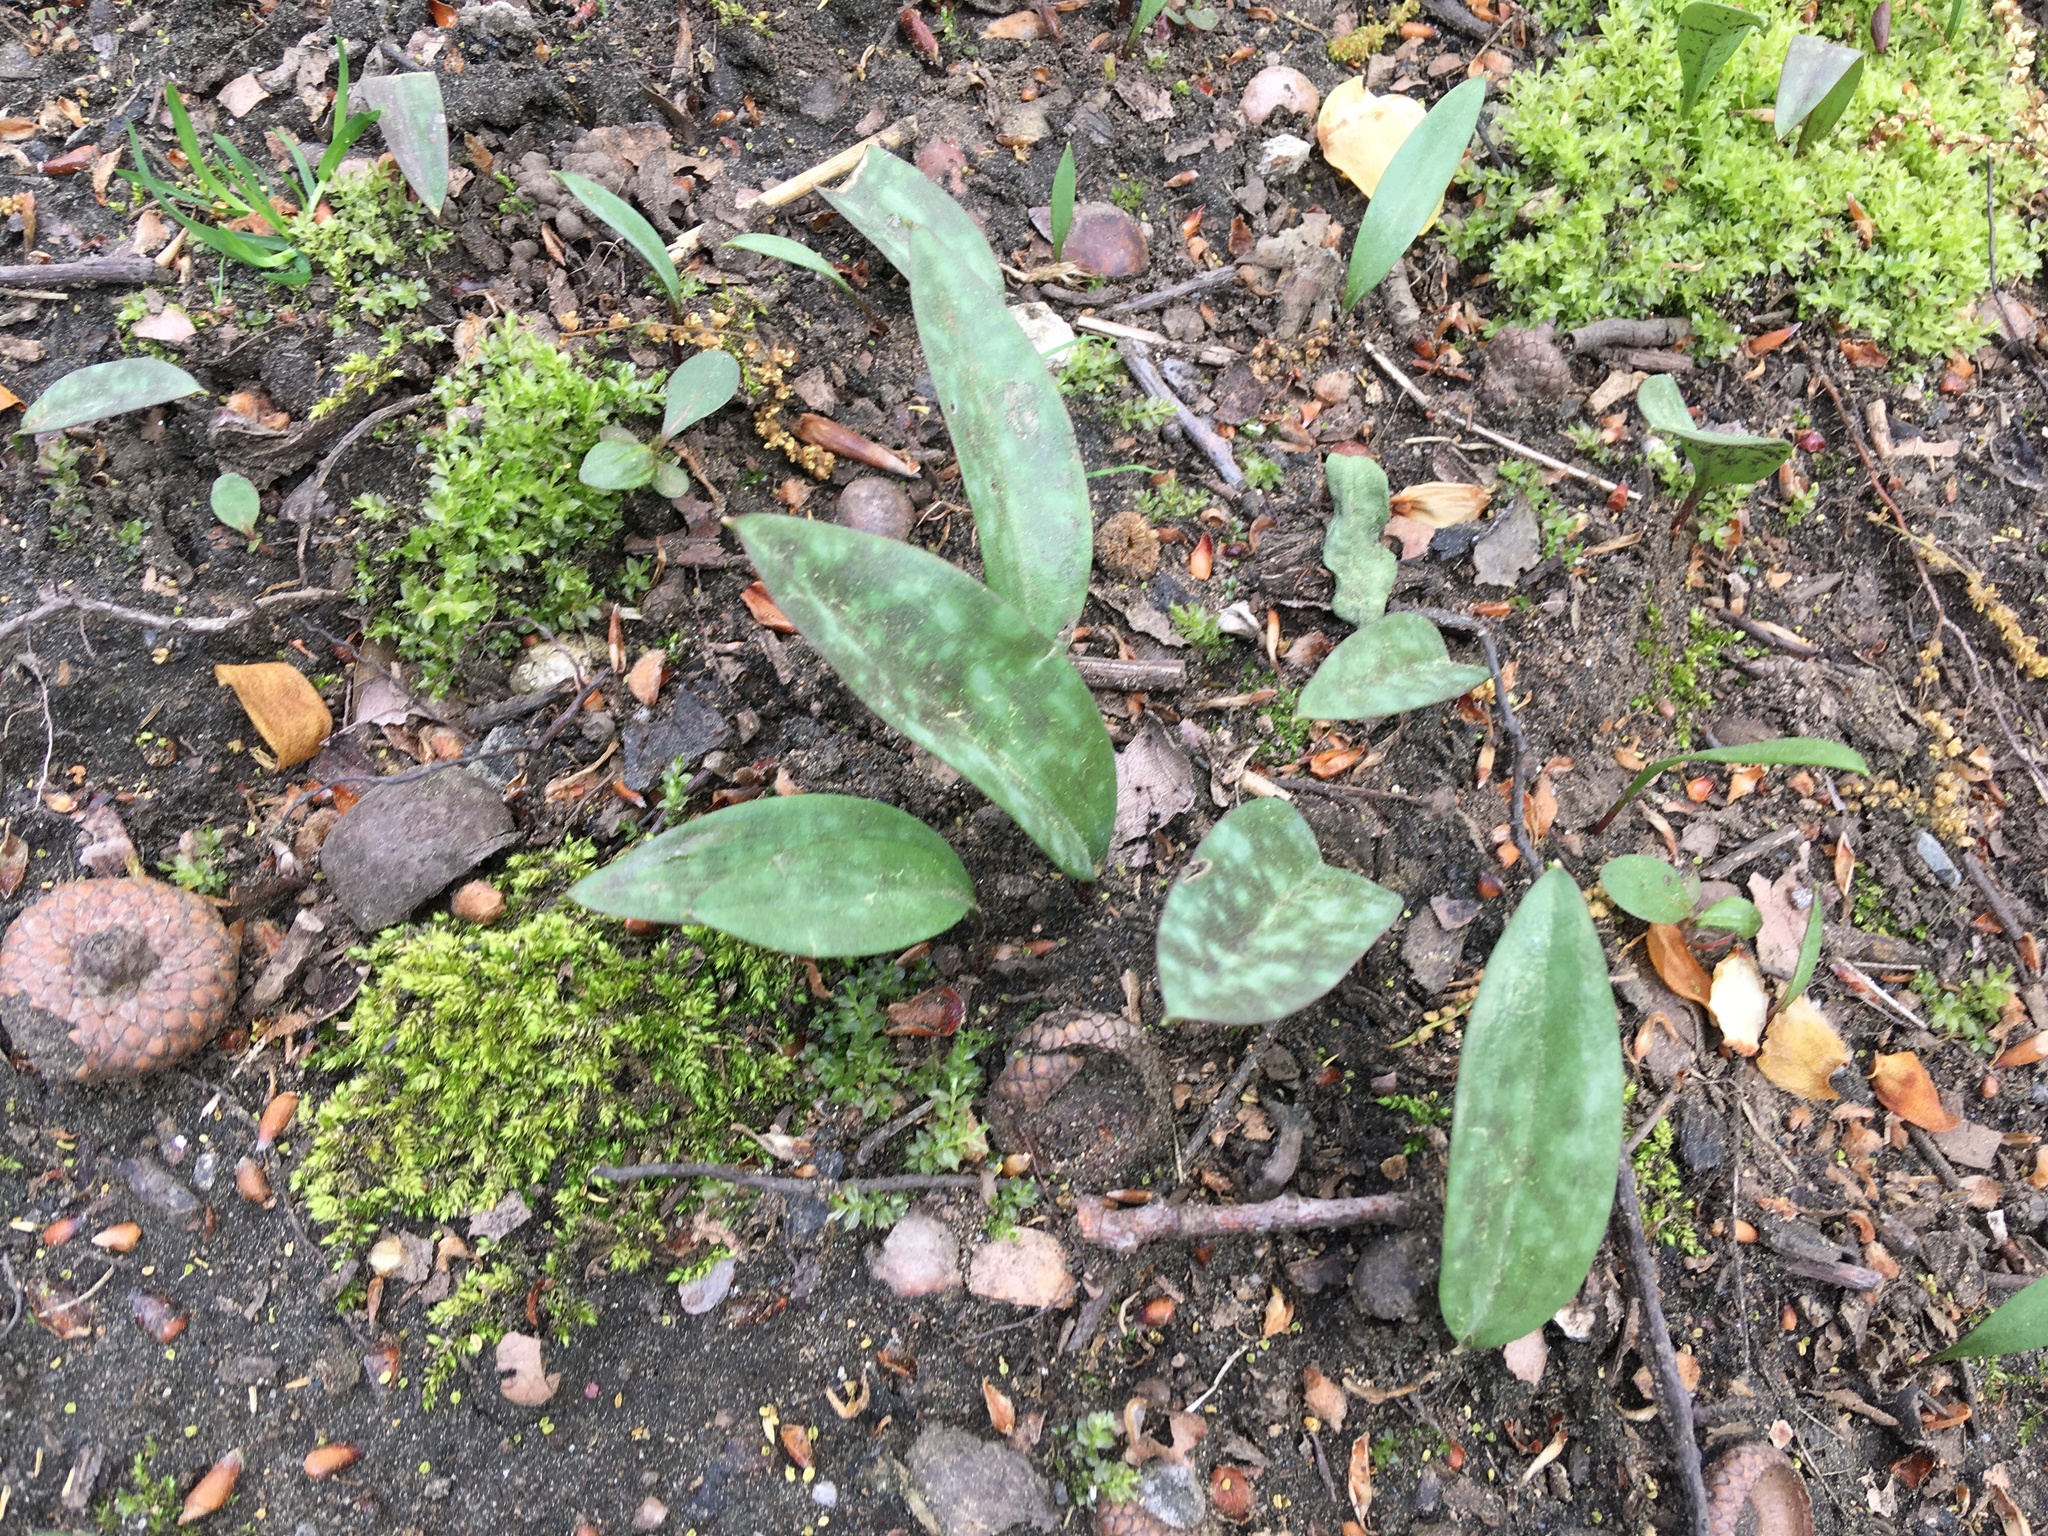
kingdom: Plantae
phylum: Tracheophyta
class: Liliopsida
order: Liliales
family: Liliaceae
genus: Erythronium
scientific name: Erythronium americanum
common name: Yellow adder's-tongue
